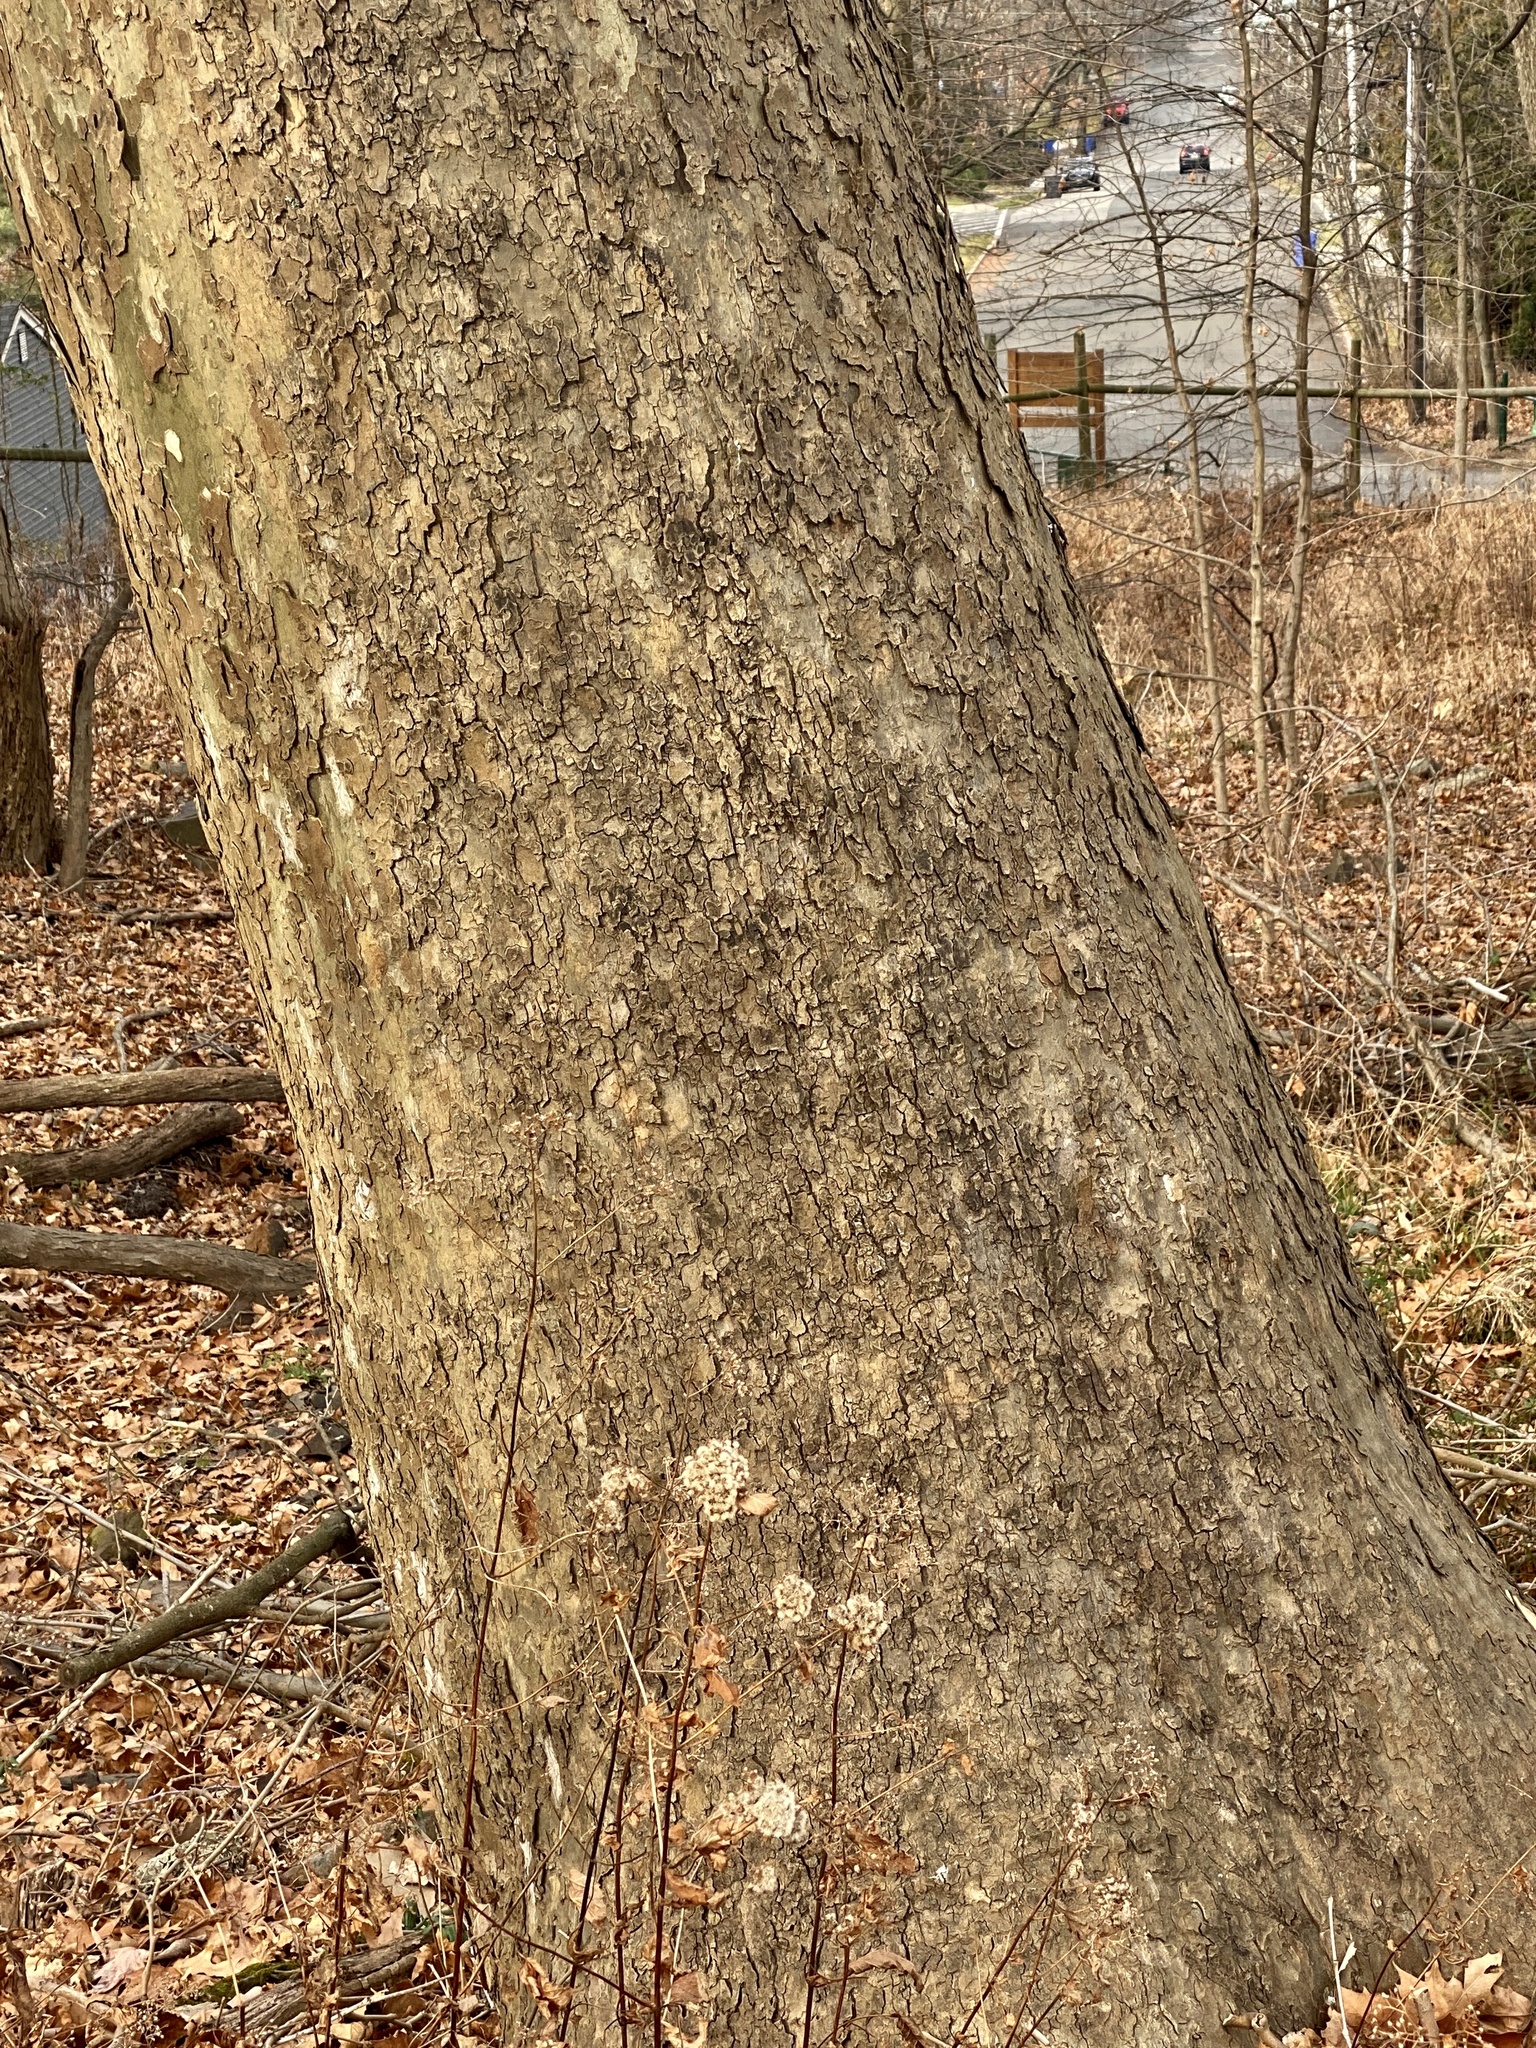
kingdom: Plantae
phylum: Tracheophyta
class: Magnoliopsida
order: Proteales
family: Platanaceae
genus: Platanus
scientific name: Platanus occidentalis
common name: American sycamore
